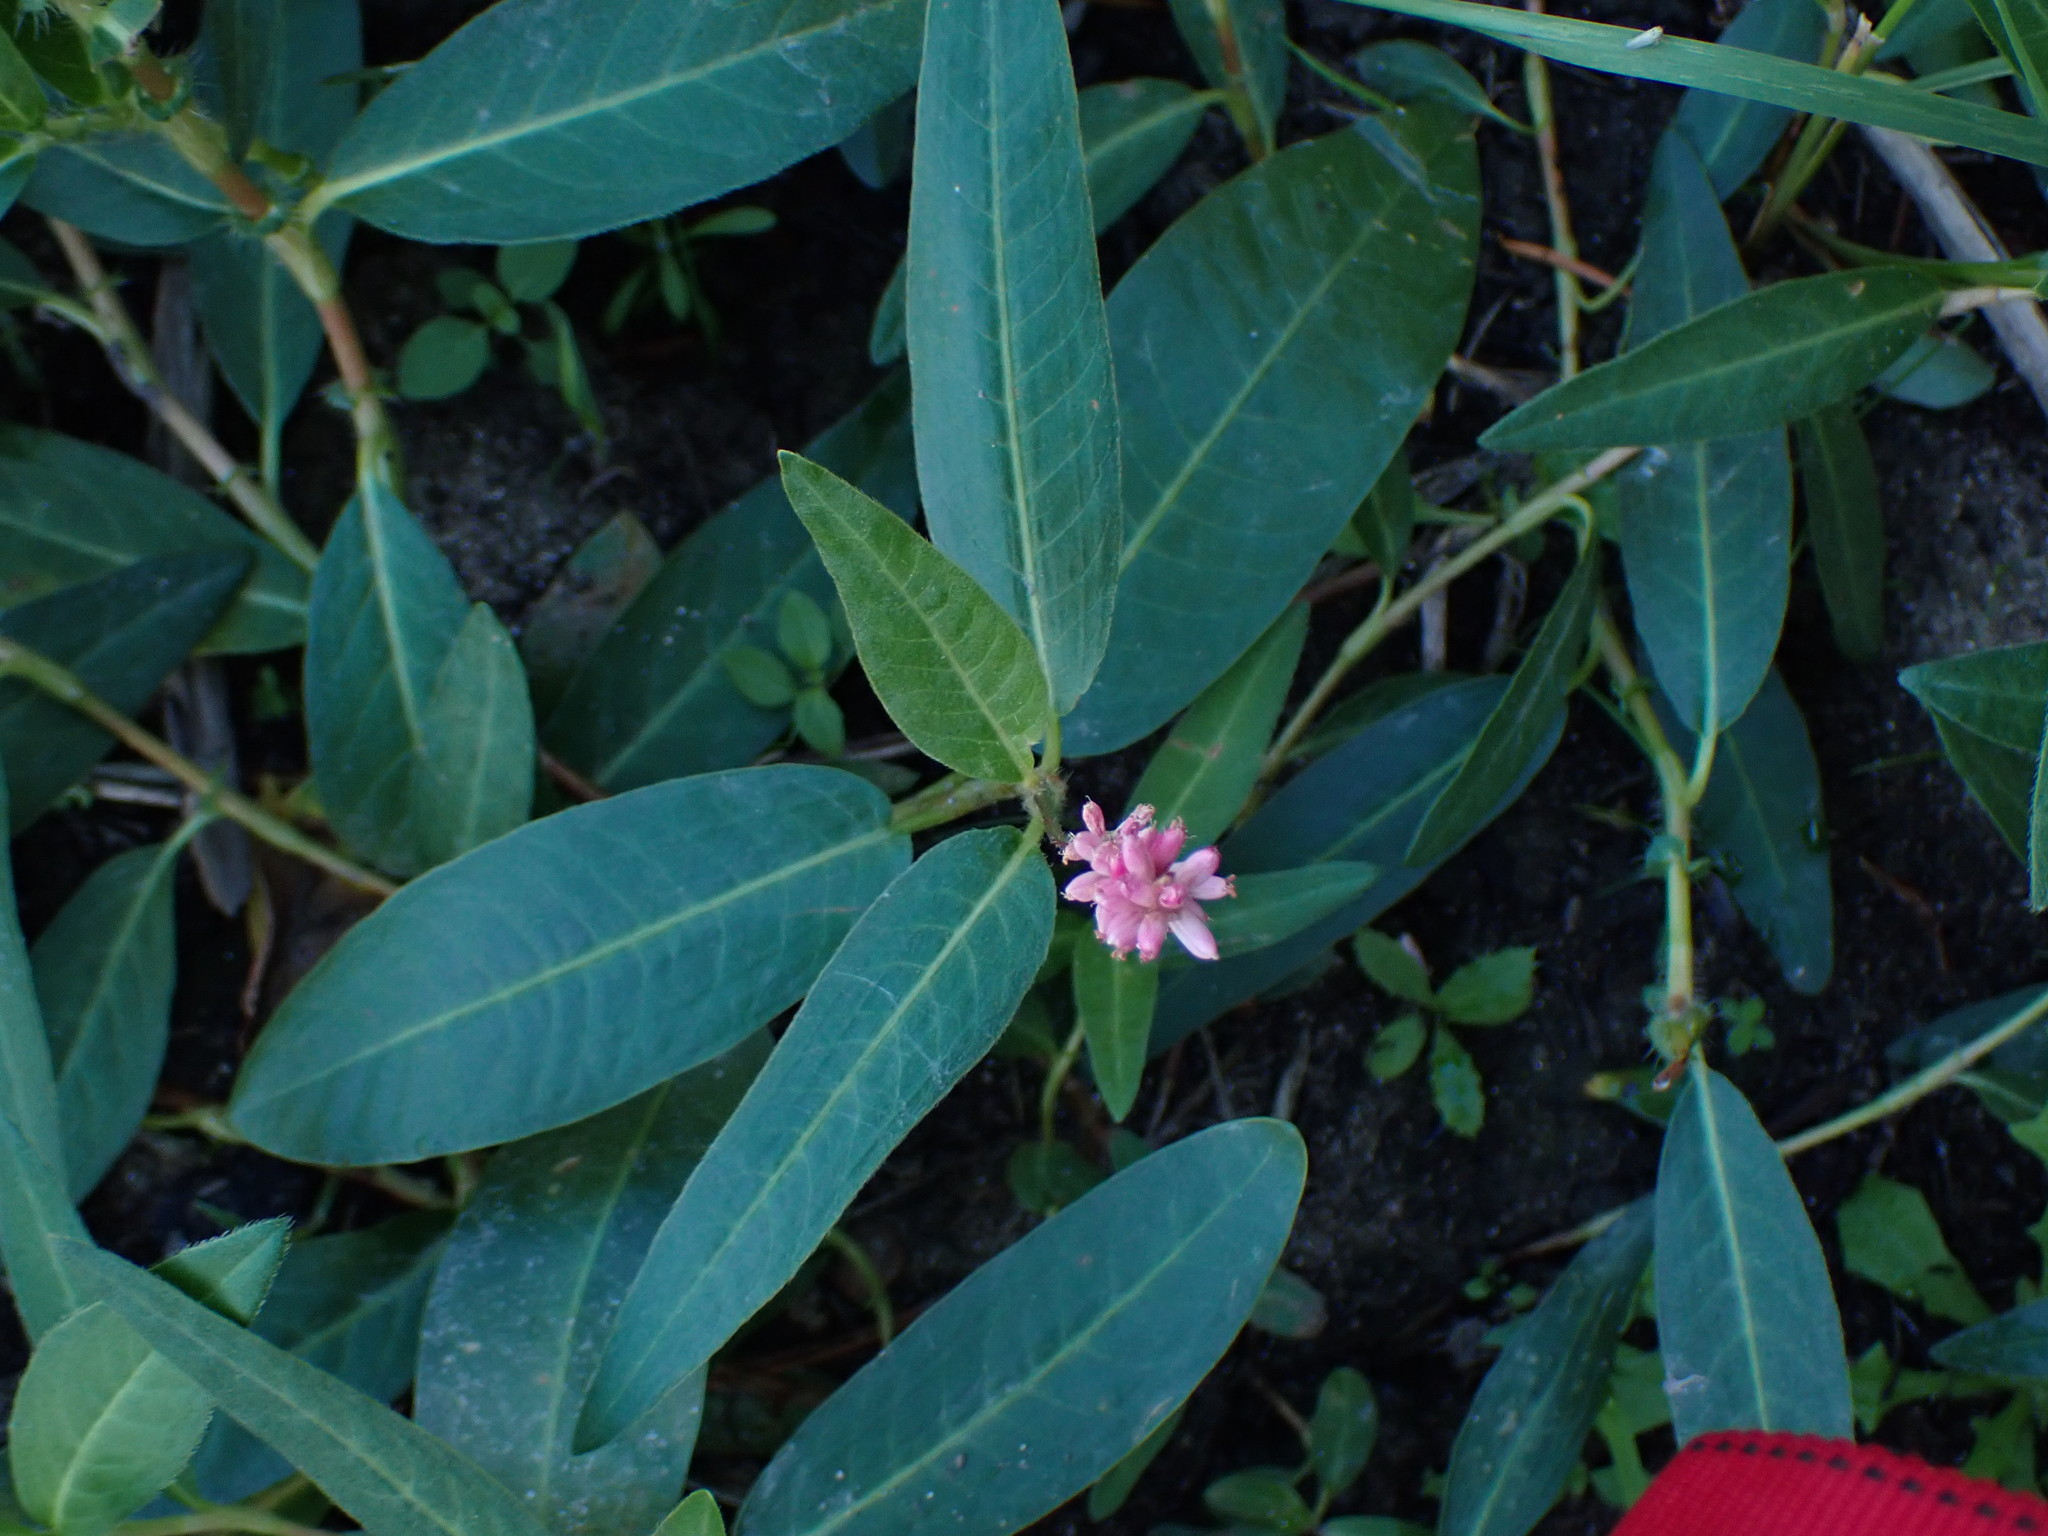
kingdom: Plantae
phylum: Tracheophyta
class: Magnoliopsida
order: Caryophyllales
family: Polygonaceae
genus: Persicaria
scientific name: Persicaria amphibia
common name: Amphibious bistort
